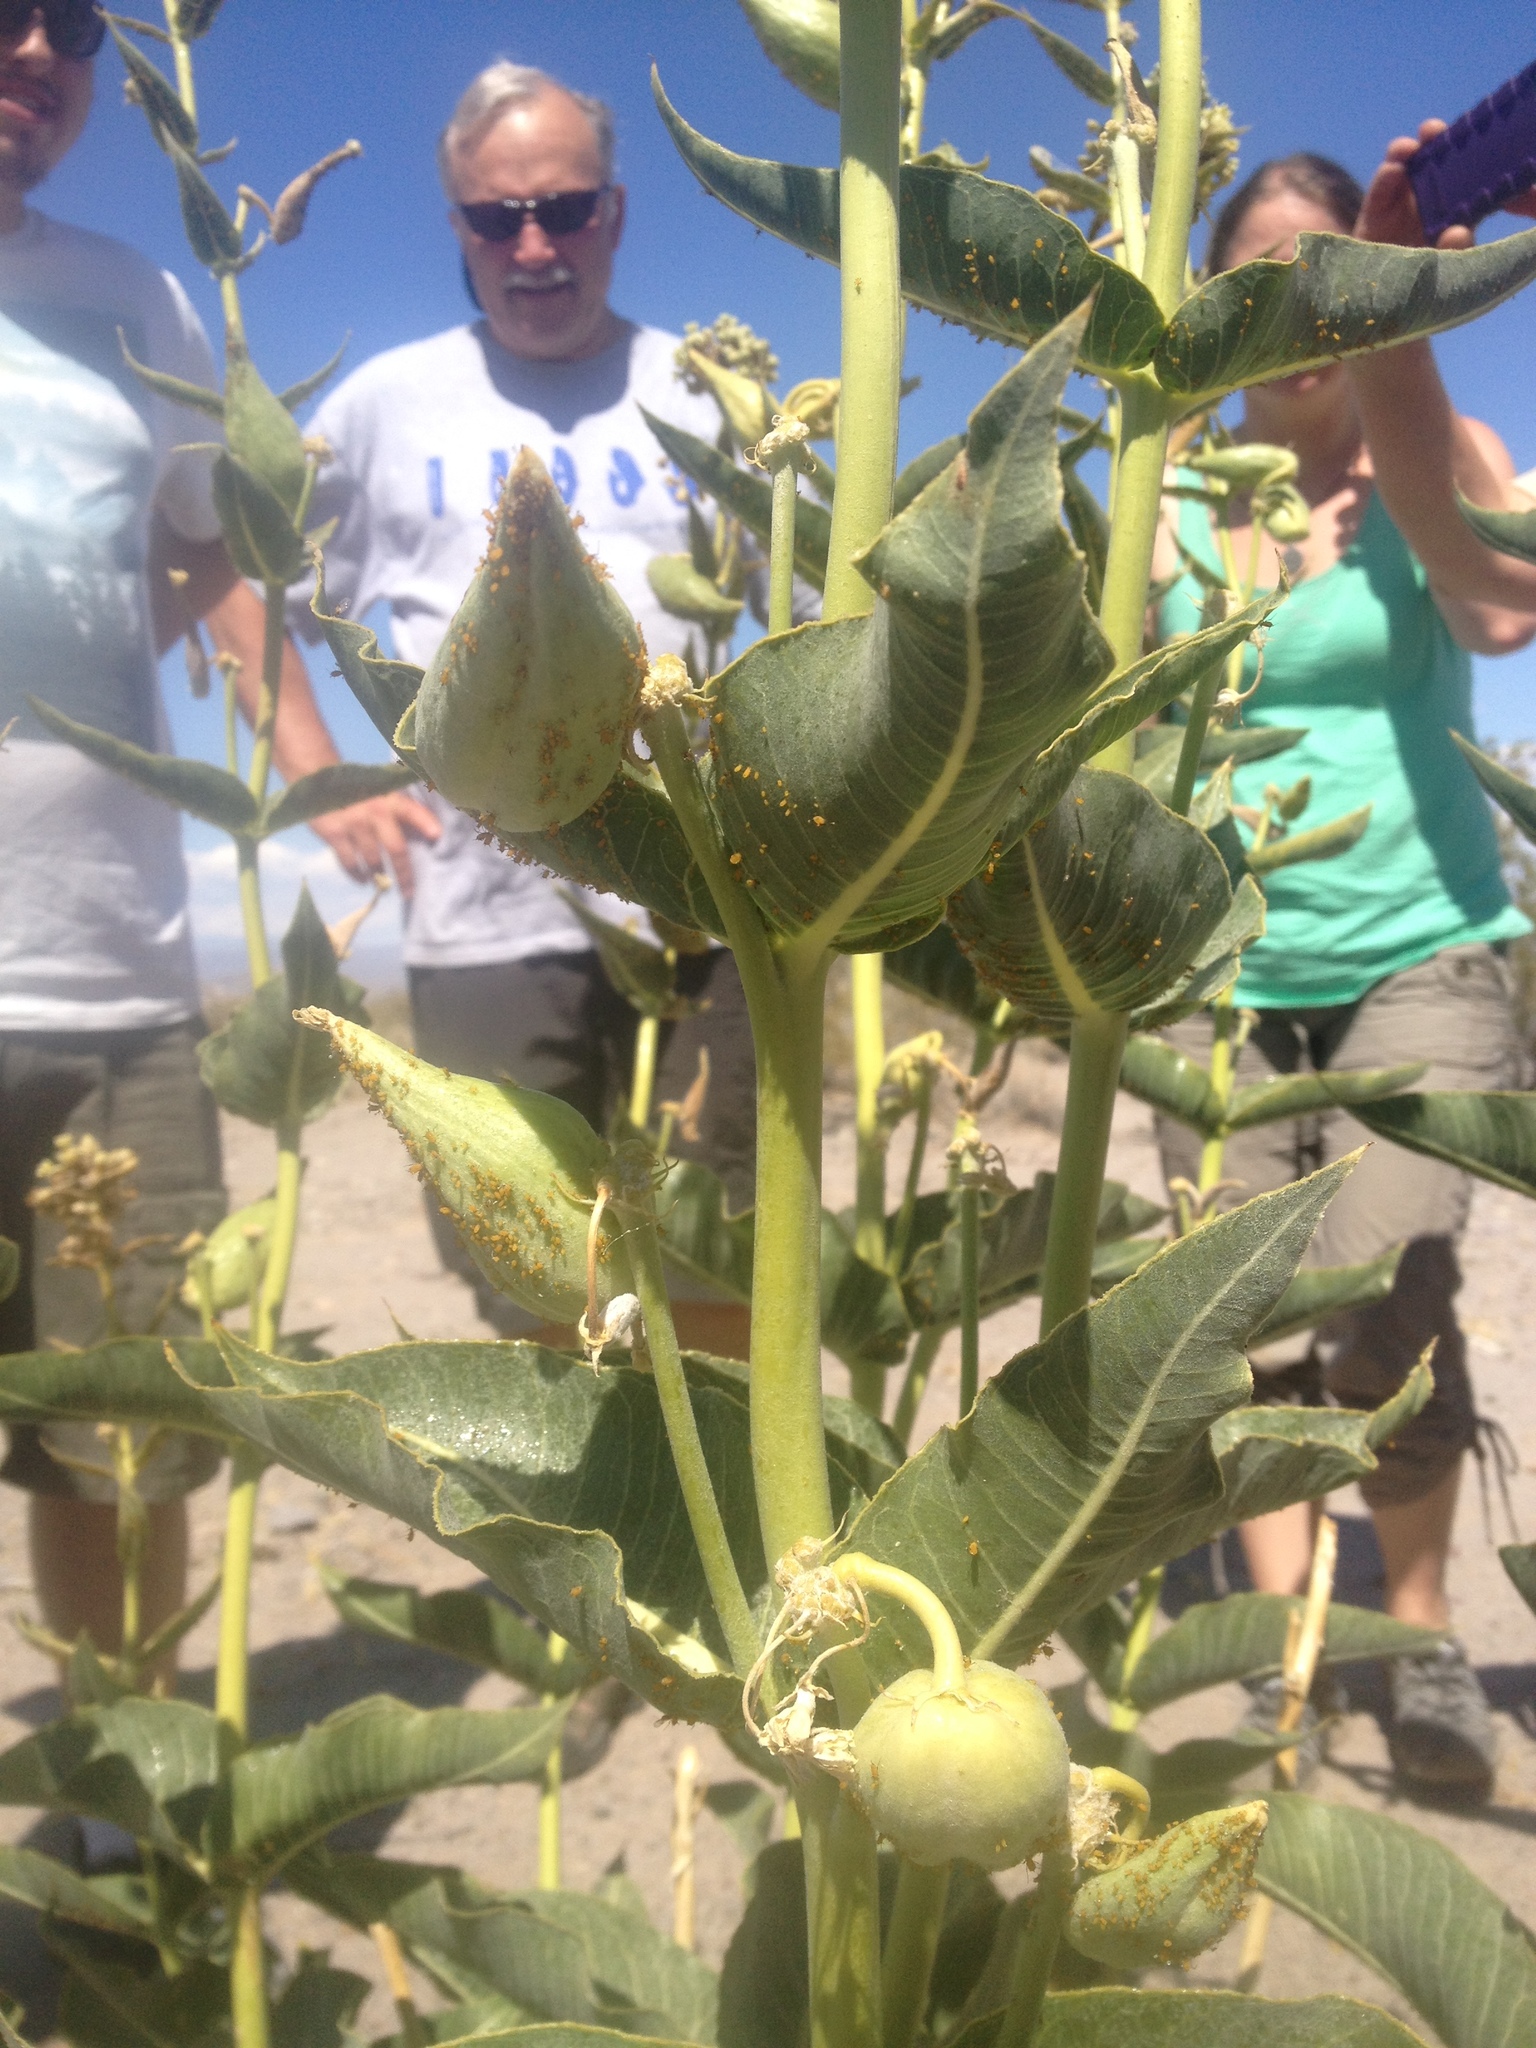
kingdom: Plantae
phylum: Tracheophyta
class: Magnoliopsida
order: Gentianales
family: Apocynaceae
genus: Asclepias
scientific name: Asclepias erosa
